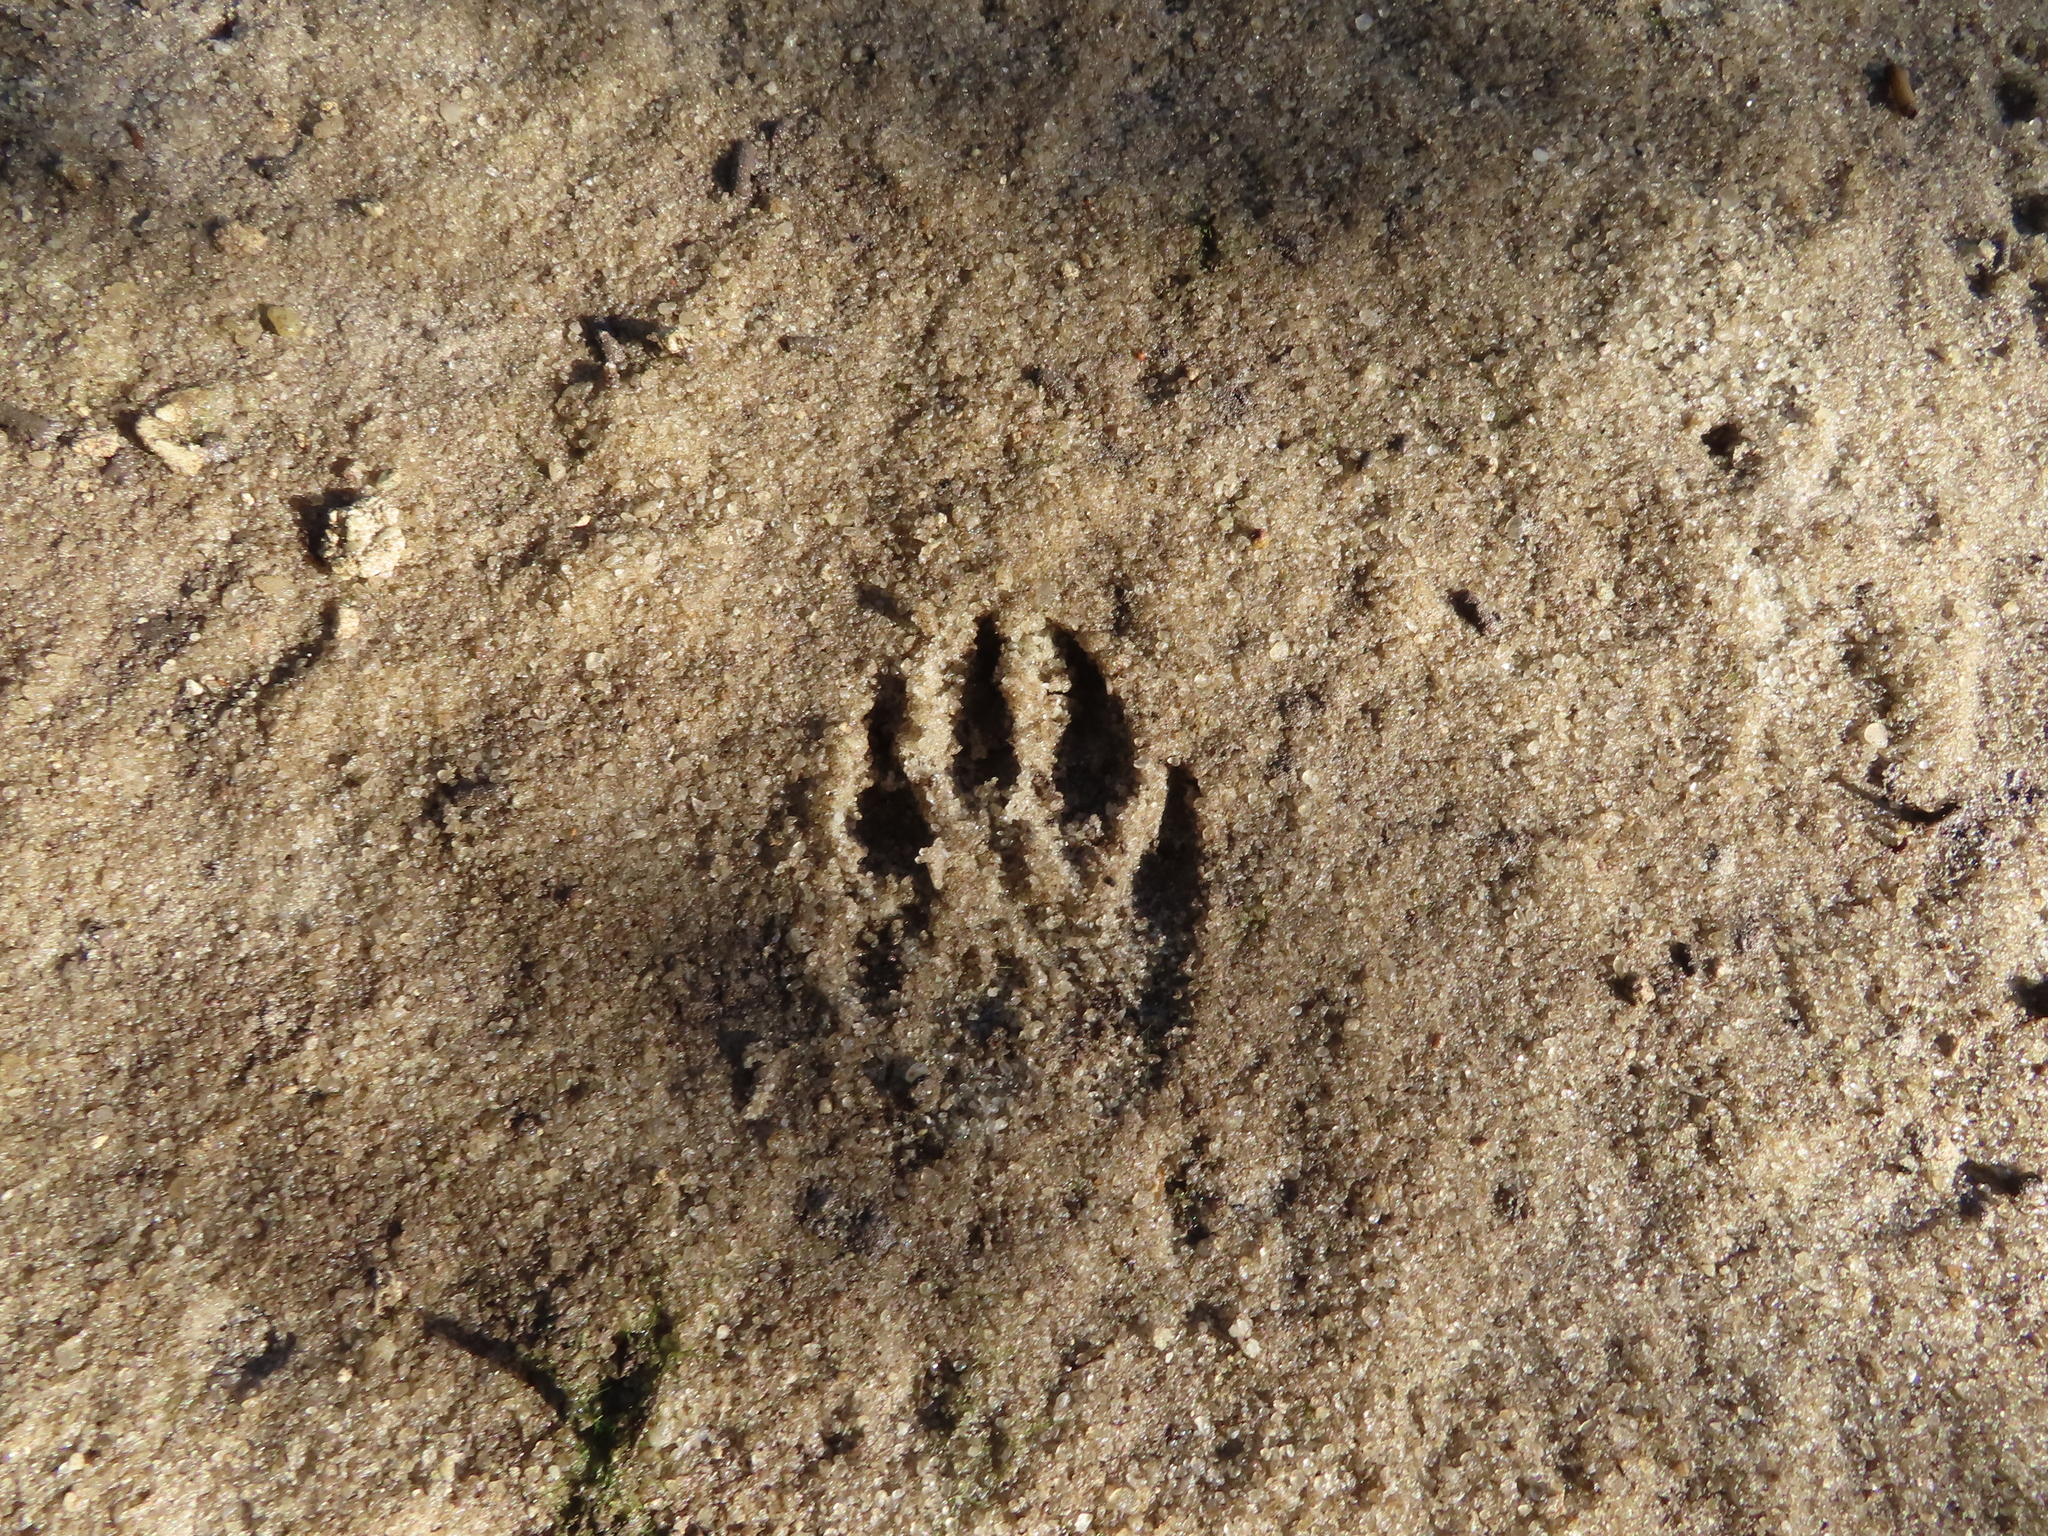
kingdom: Animalia
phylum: Chordata
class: Mammalia
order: Carnivora
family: Procyonidae
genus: Procyon
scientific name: Procyon lotor
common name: Raccoon
